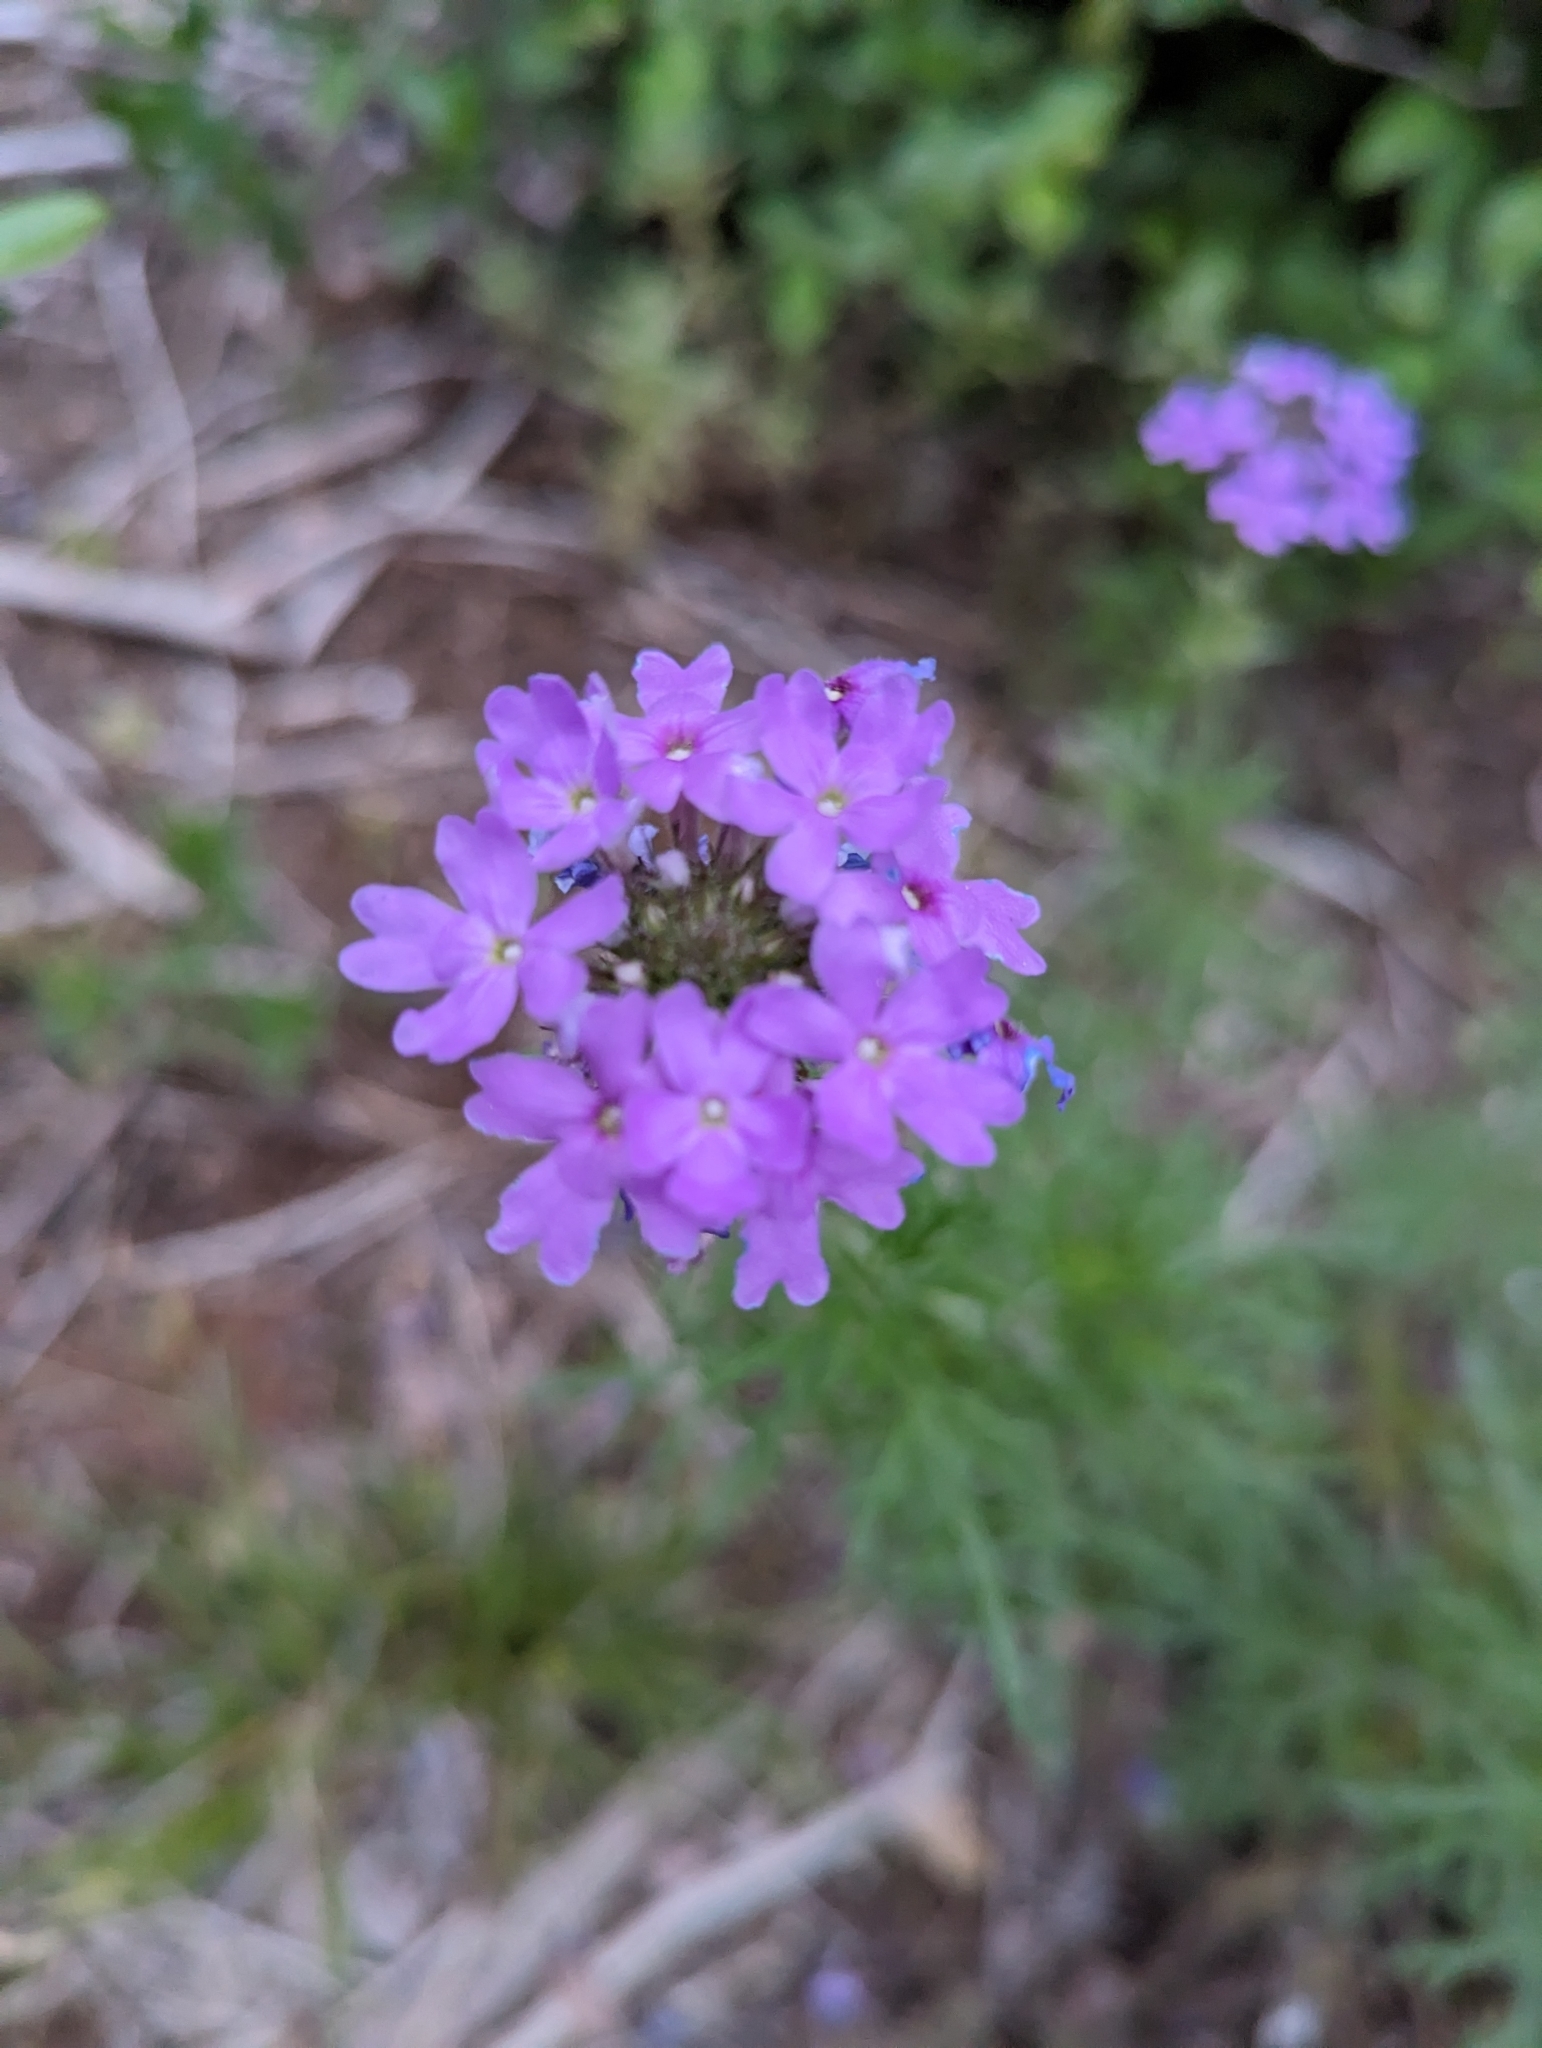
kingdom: Plantae
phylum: Tracheophyta
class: Magnoliopsida
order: Lamiales
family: Verbenaceae
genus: Verbena
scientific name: Verbena bipinnatifida
